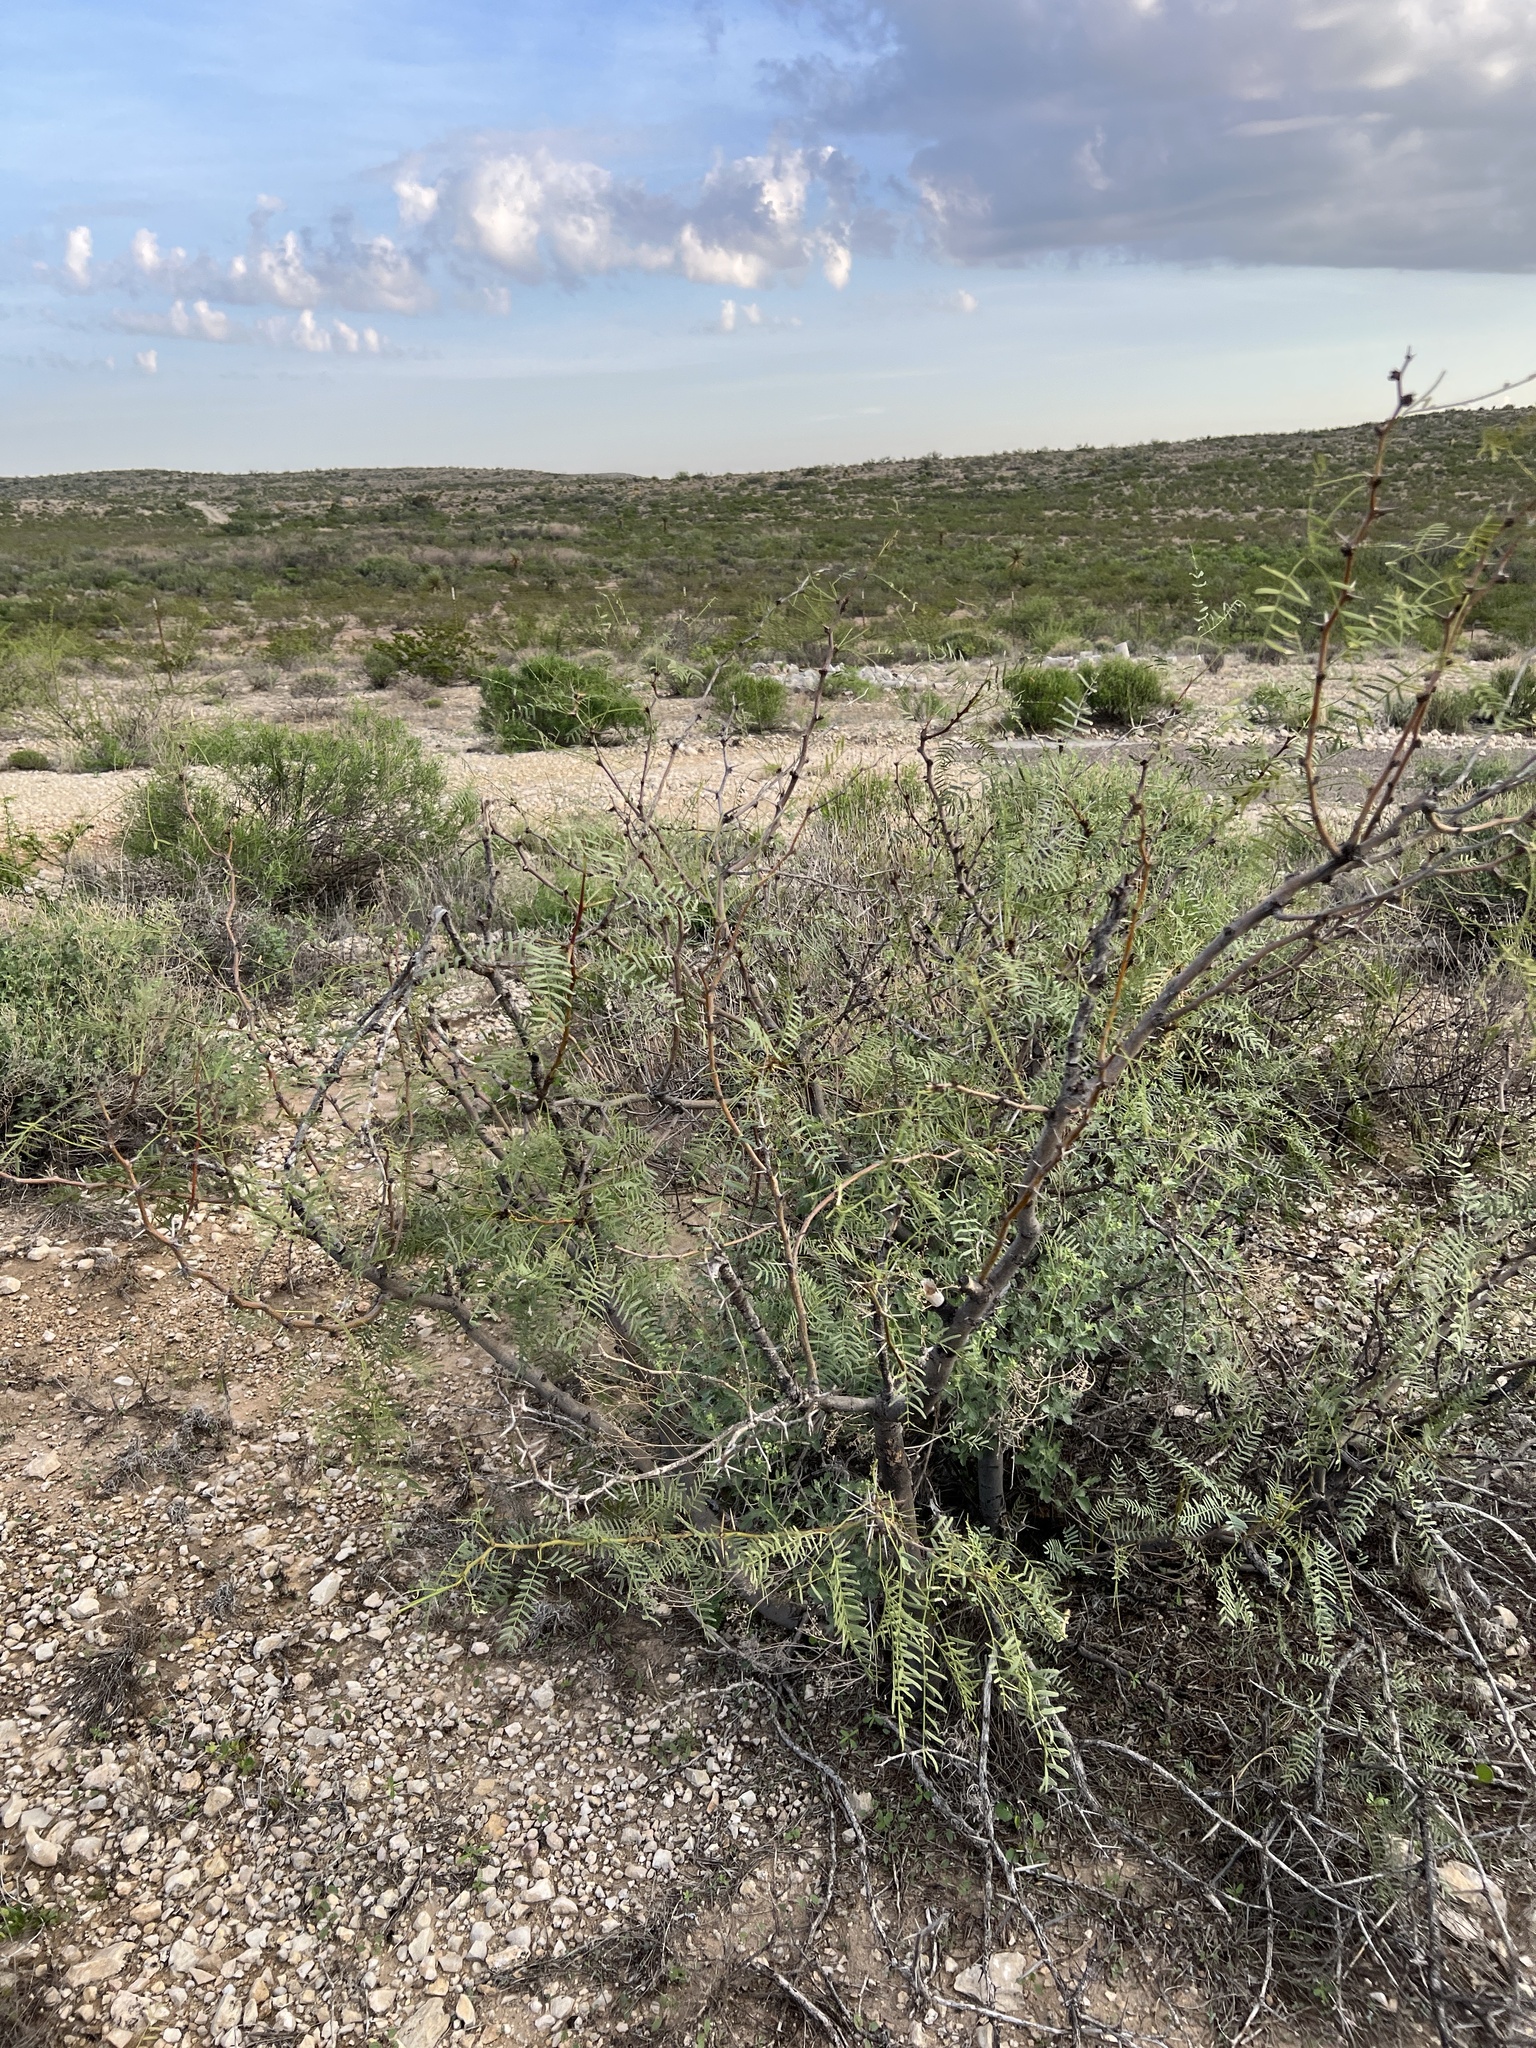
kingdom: Plantae
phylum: Tracheophyta
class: Magnoliopsida
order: Fabales
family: Fabaceae
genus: Prosopis
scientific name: Prosopis glandulosa
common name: Honey mesquite
